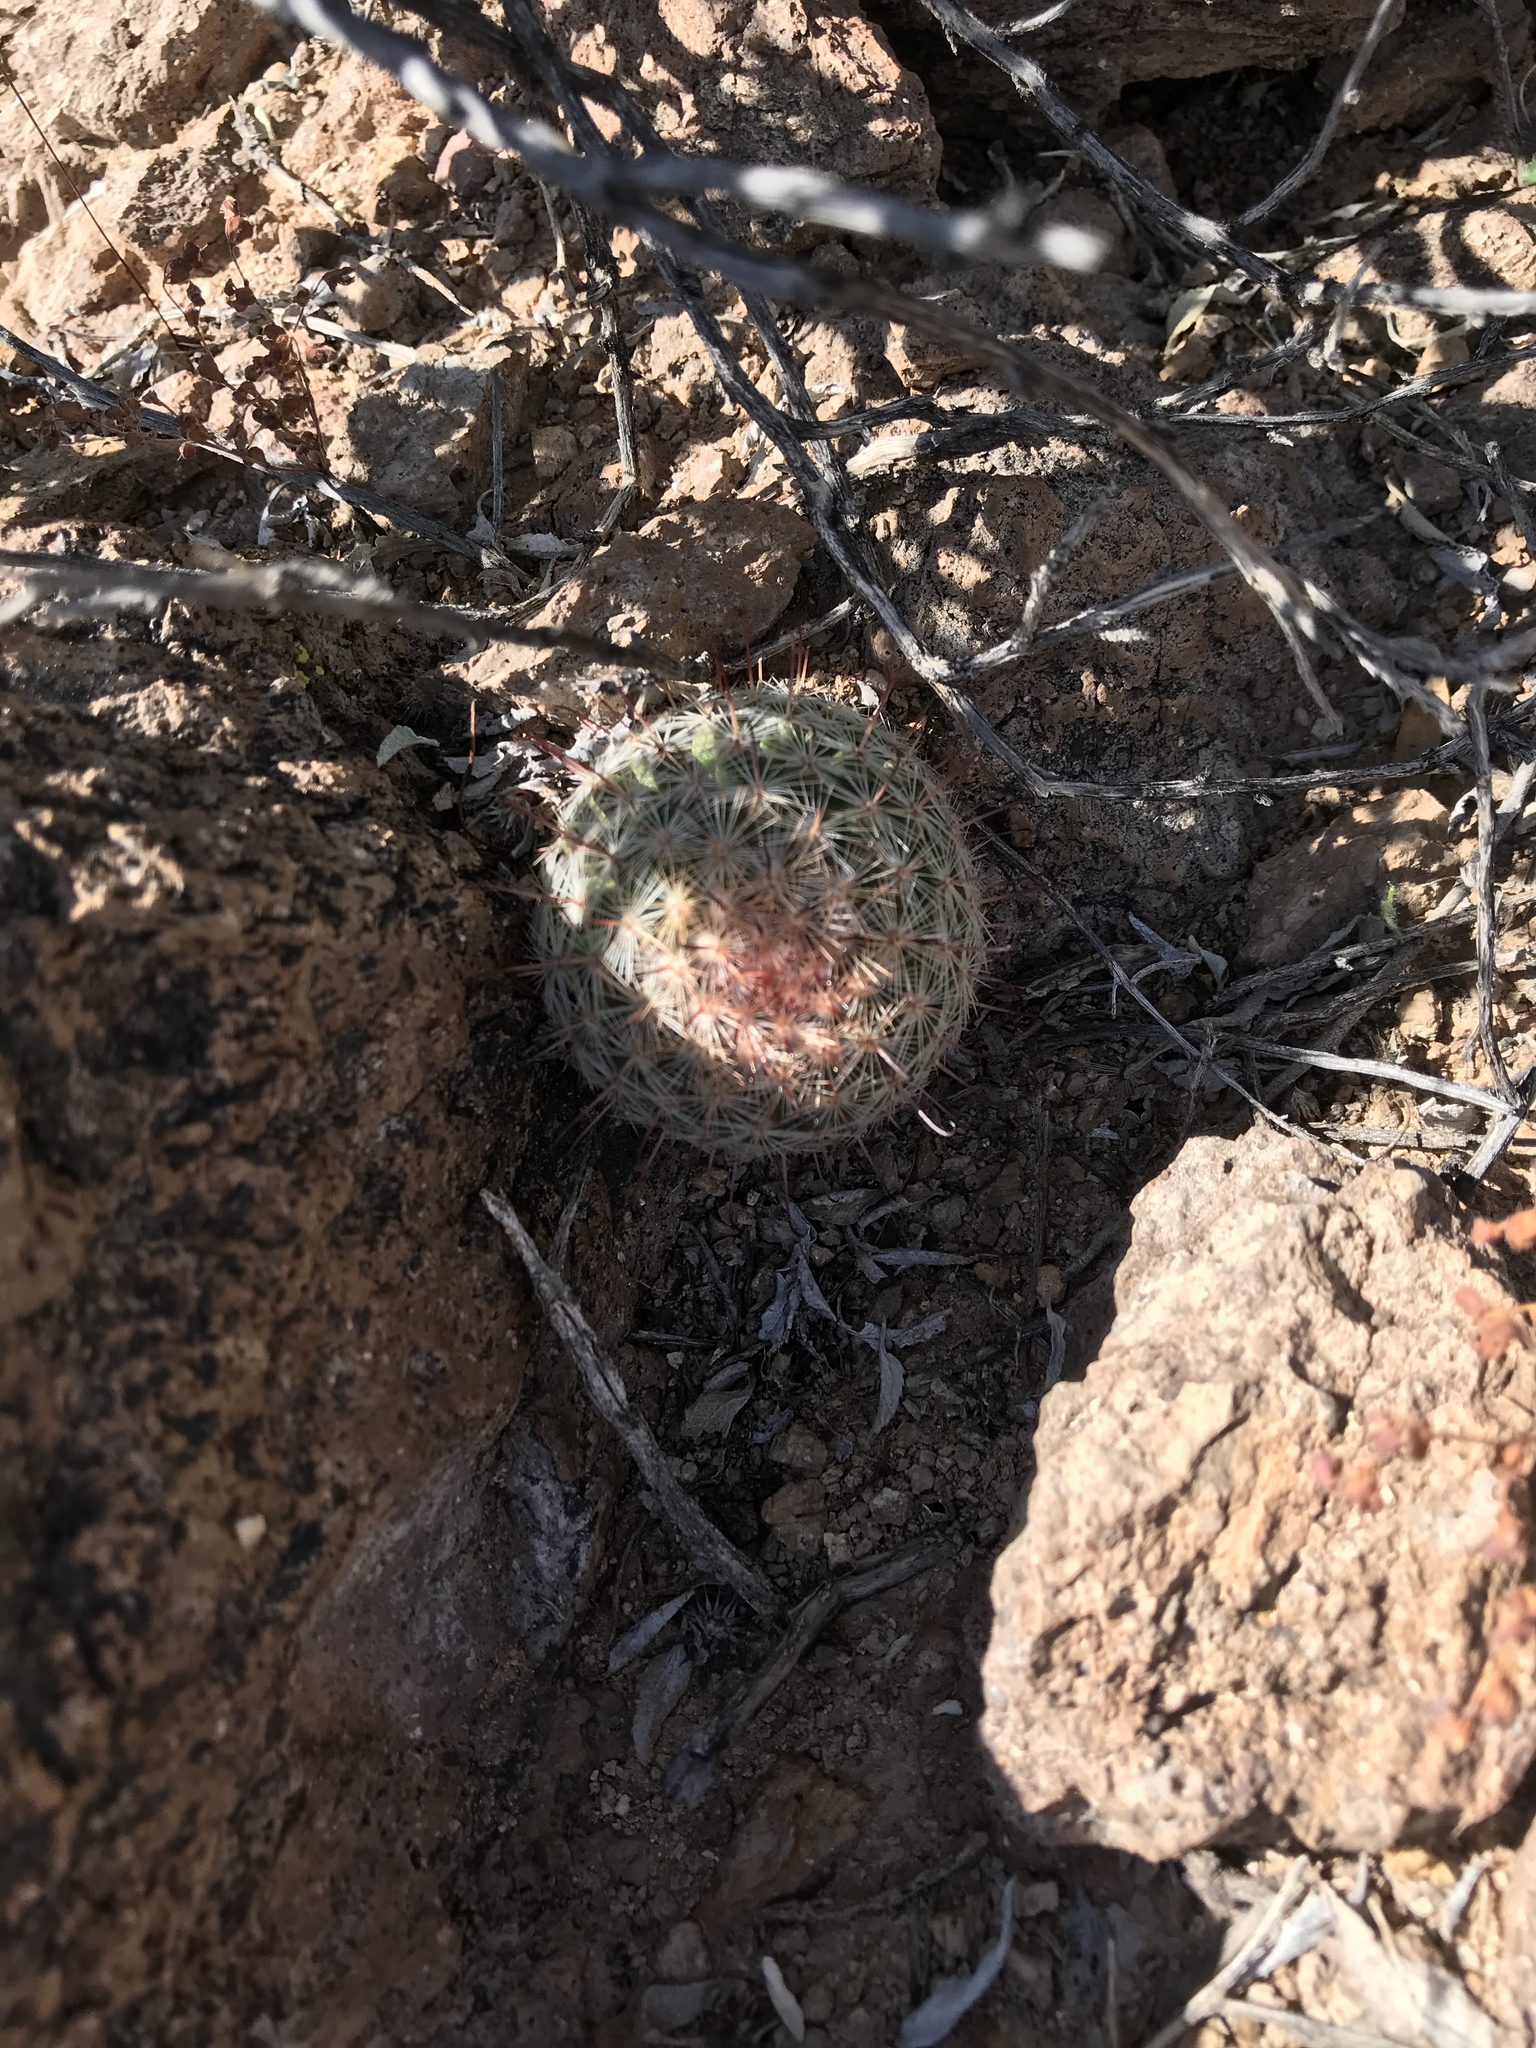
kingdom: Plantae
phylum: Tracheophyta
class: Magnoliopsida
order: Caryophyllales
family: Cactaceae
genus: Cochemiea
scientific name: Cochemiea grahamii
